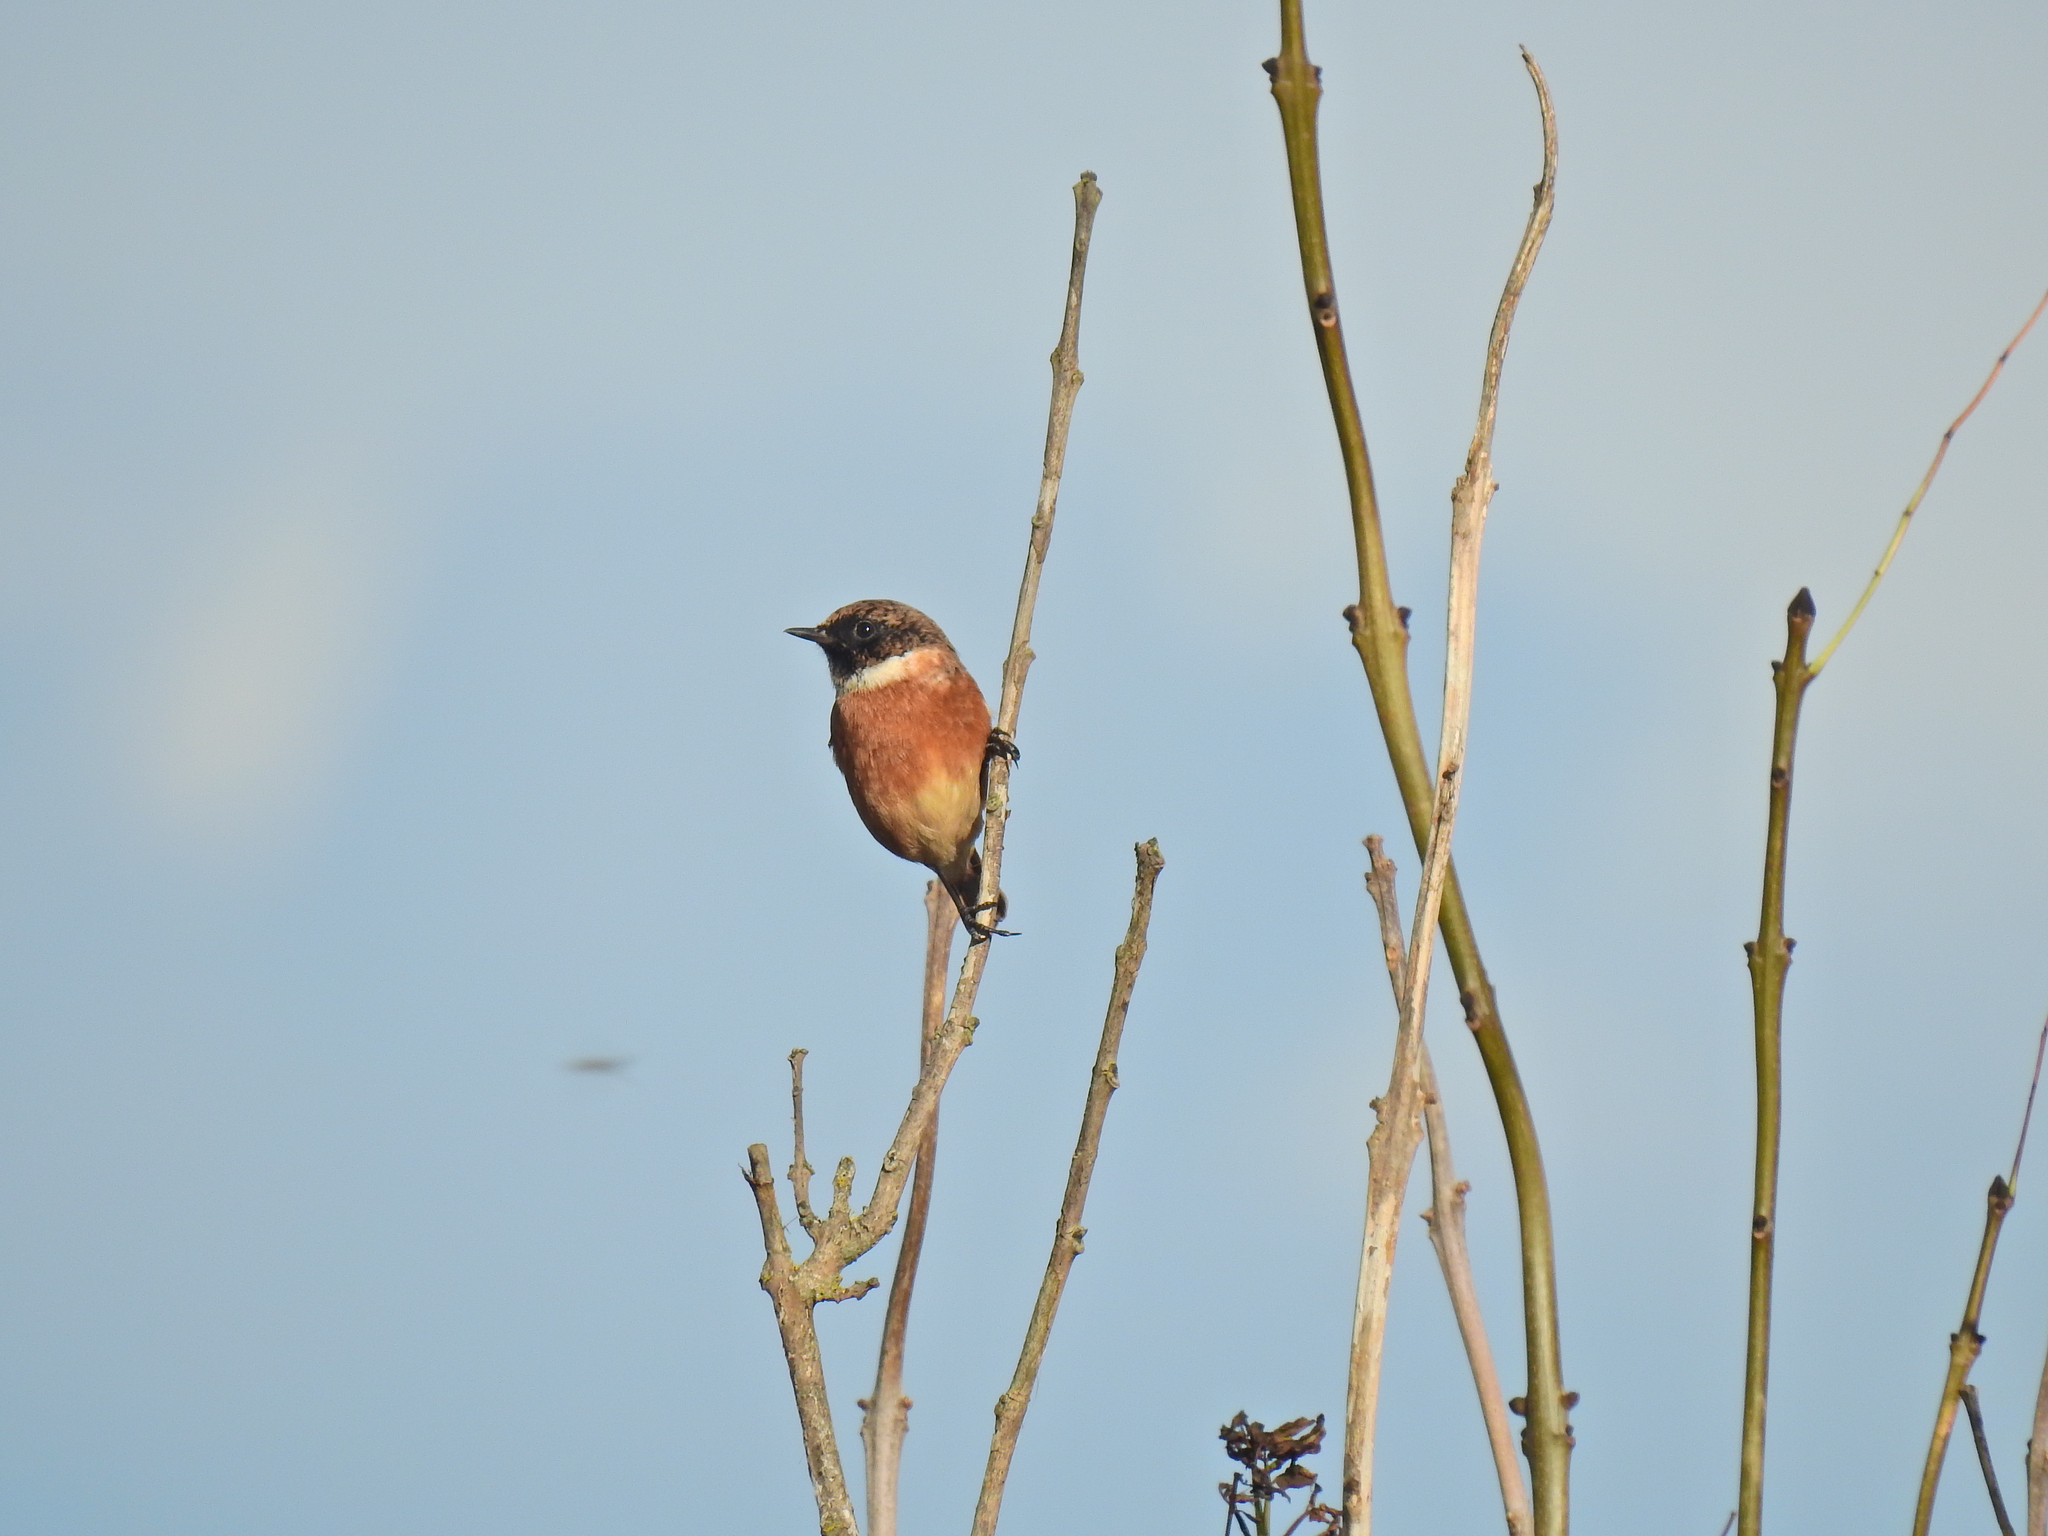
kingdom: Animalia
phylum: Chordata
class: Aves
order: Passeriformes
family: Muscicapidae
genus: Saxicola
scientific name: Saxicola rubicola
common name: European stonechat
